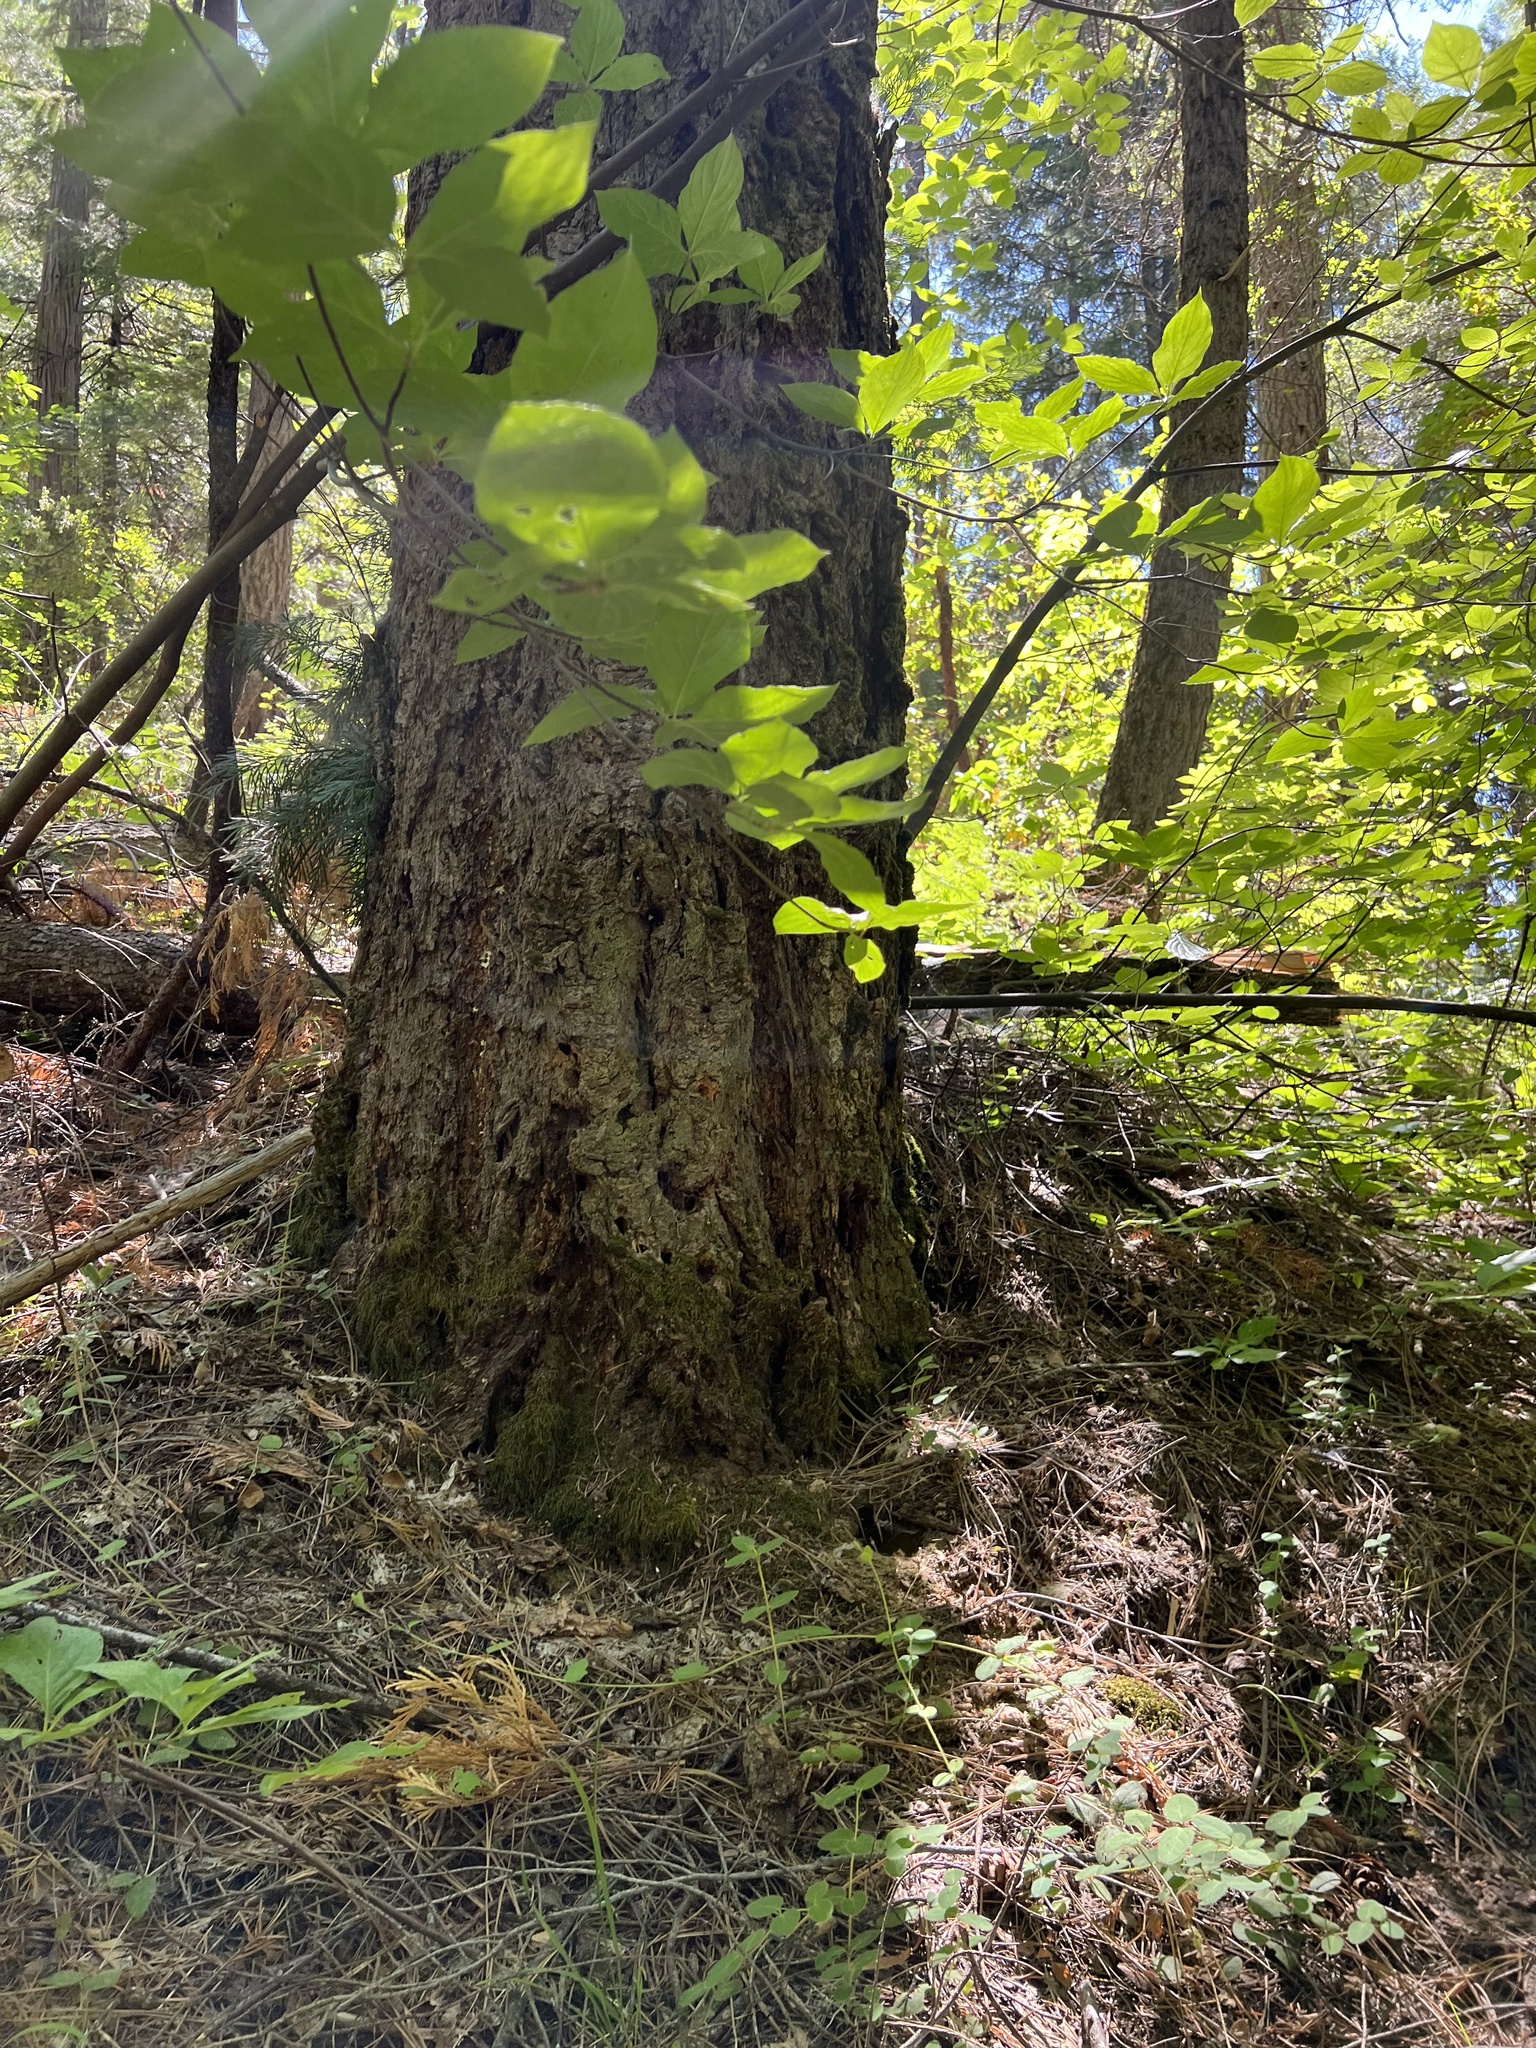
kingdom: Plantae
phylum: Tracheophyta
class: Liliopsida
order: Asparagales
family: Orchidaceae
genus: Corallorhiza
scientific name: Corallorhiza maculata
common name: Spotted coralroot
